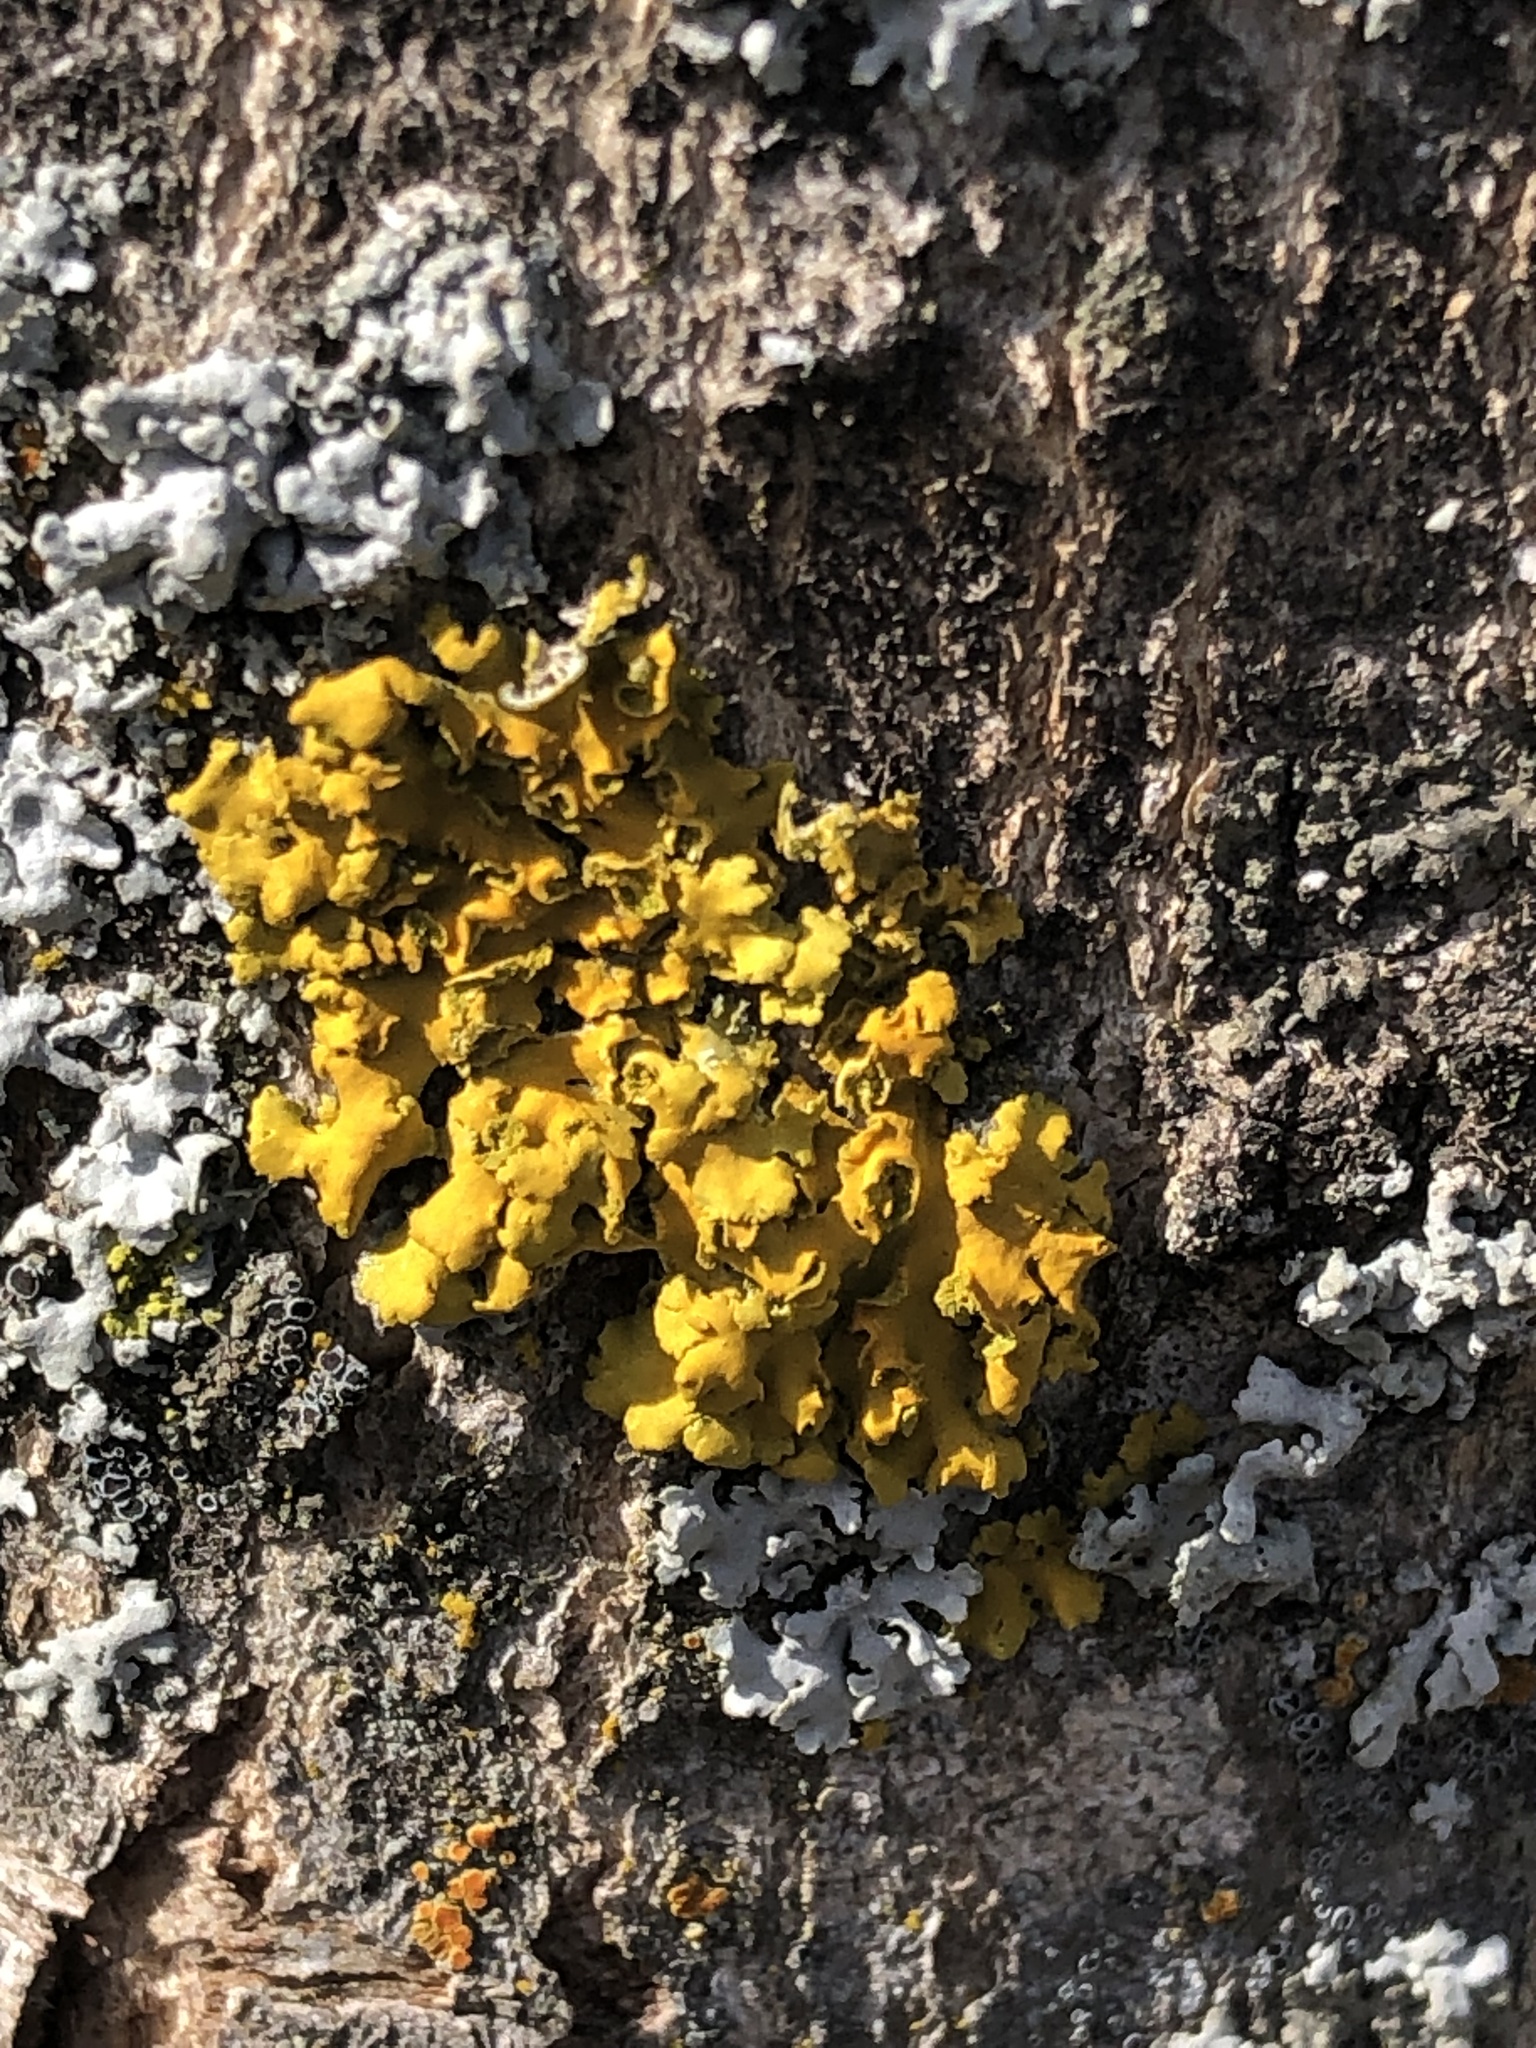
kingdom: Fungi
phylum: Ascomycota
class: Lecanoromycetes
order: Teloschistales
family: Teloschistaceae
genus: Oxneria
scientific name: Oxneria fallax
